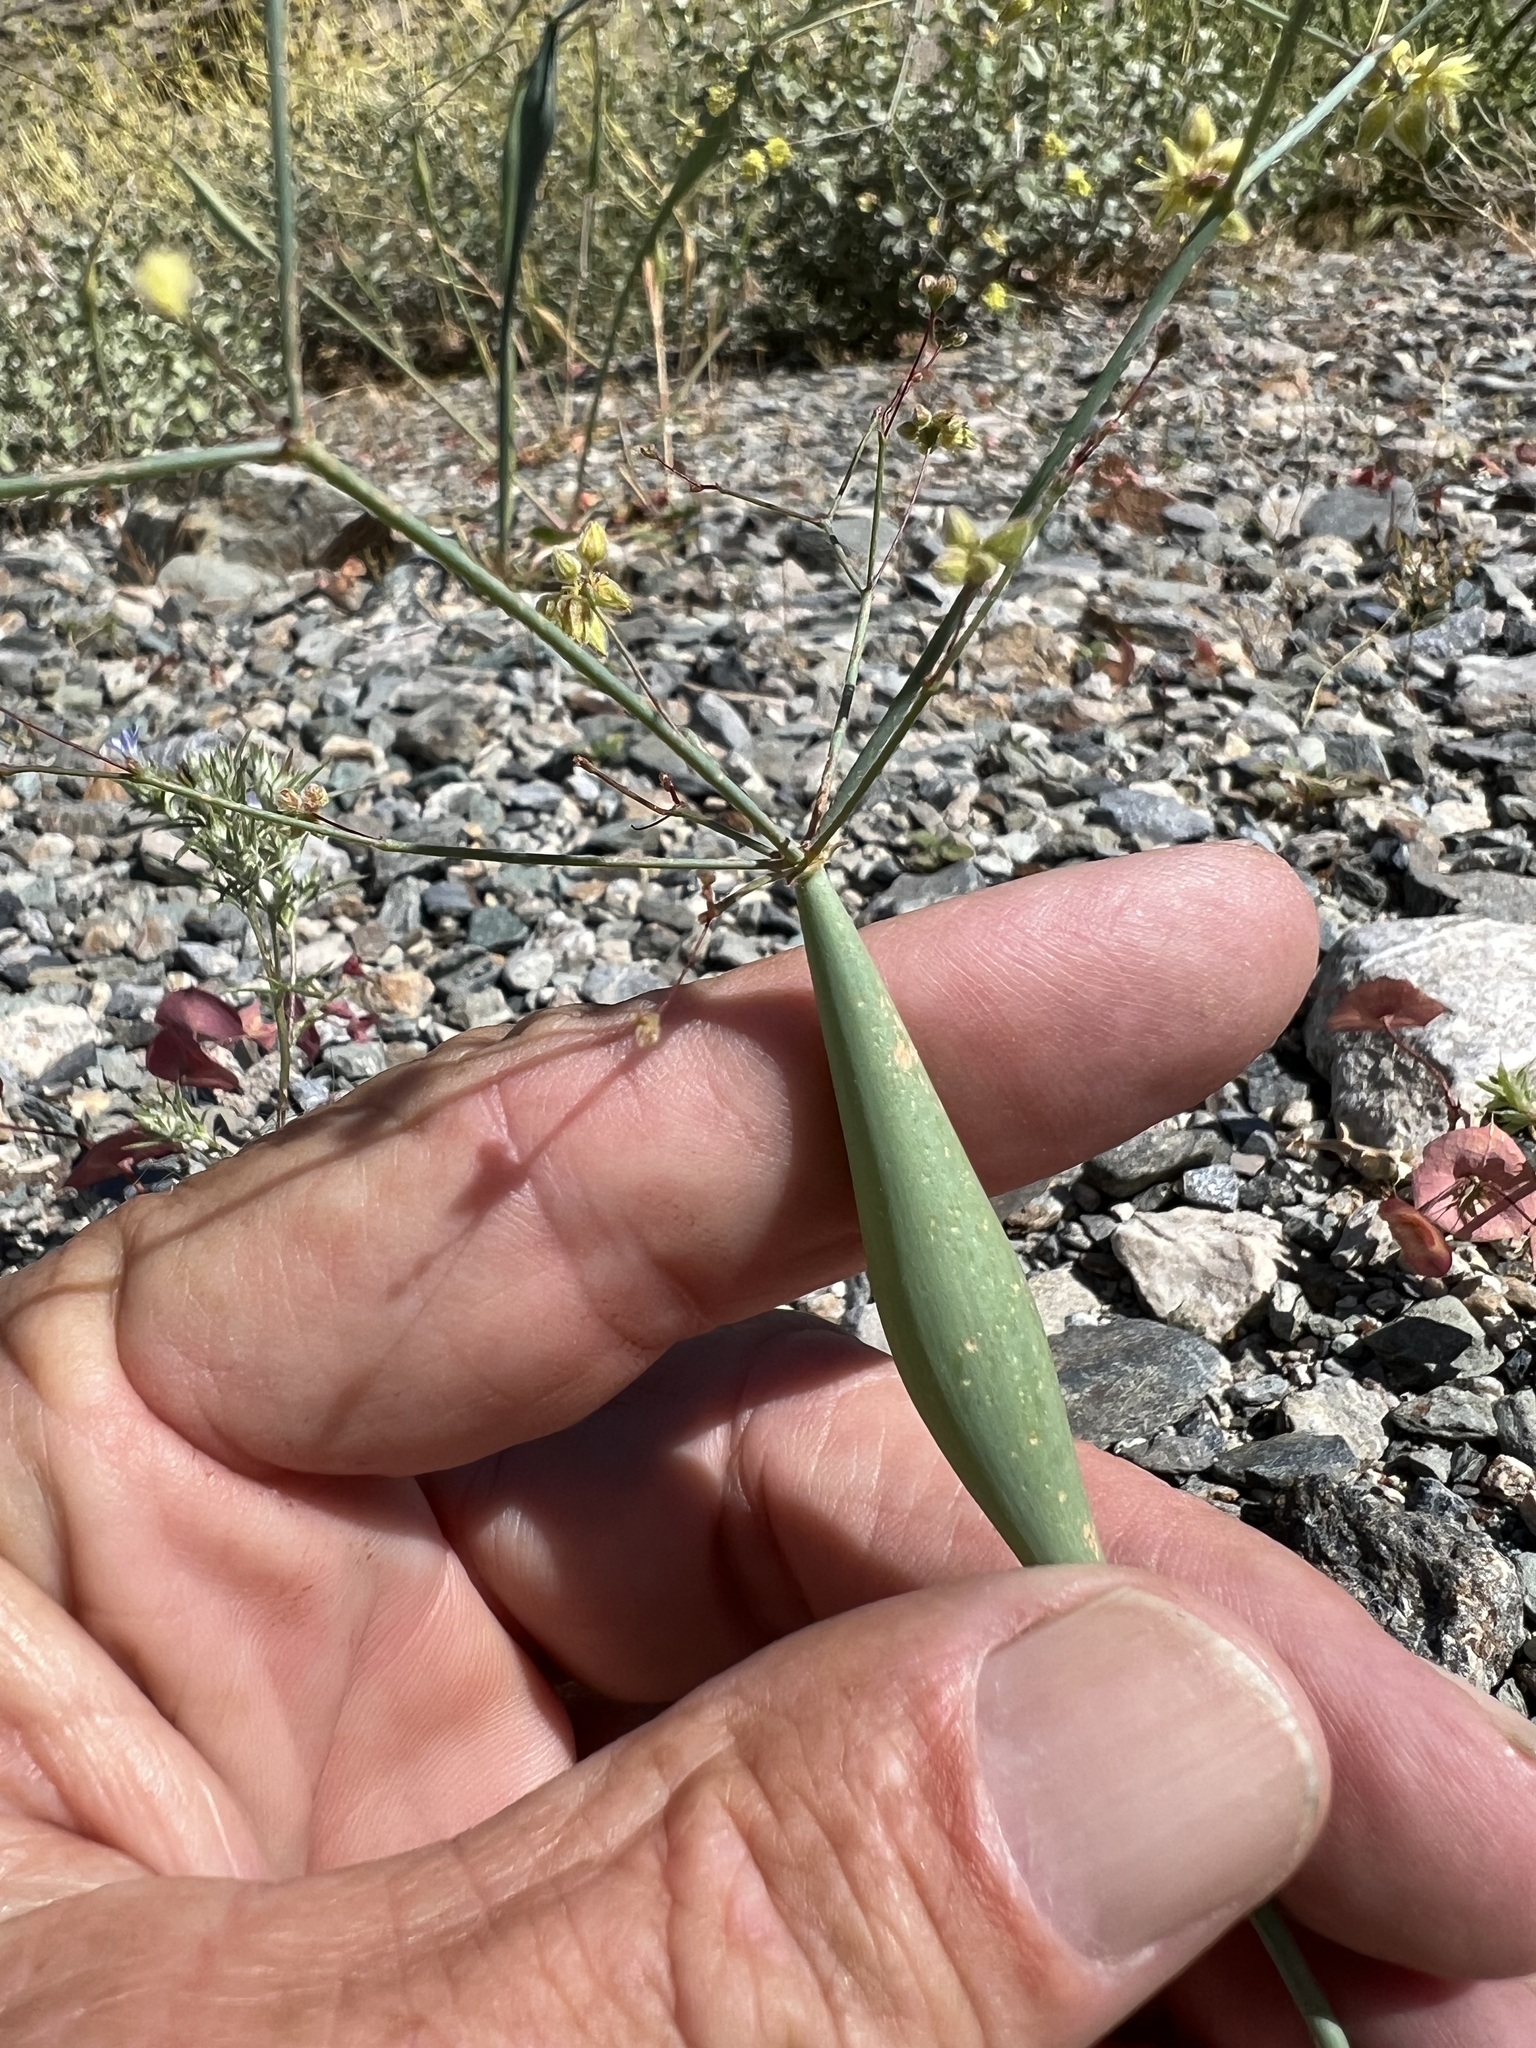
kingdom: Plantae
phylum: Tracheophyta
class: Magnoliopsida
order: Caryophyllales
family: Polygonaceae
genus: Eriogonum
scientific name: Eriogonum inflatum
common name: Desert trumpet
